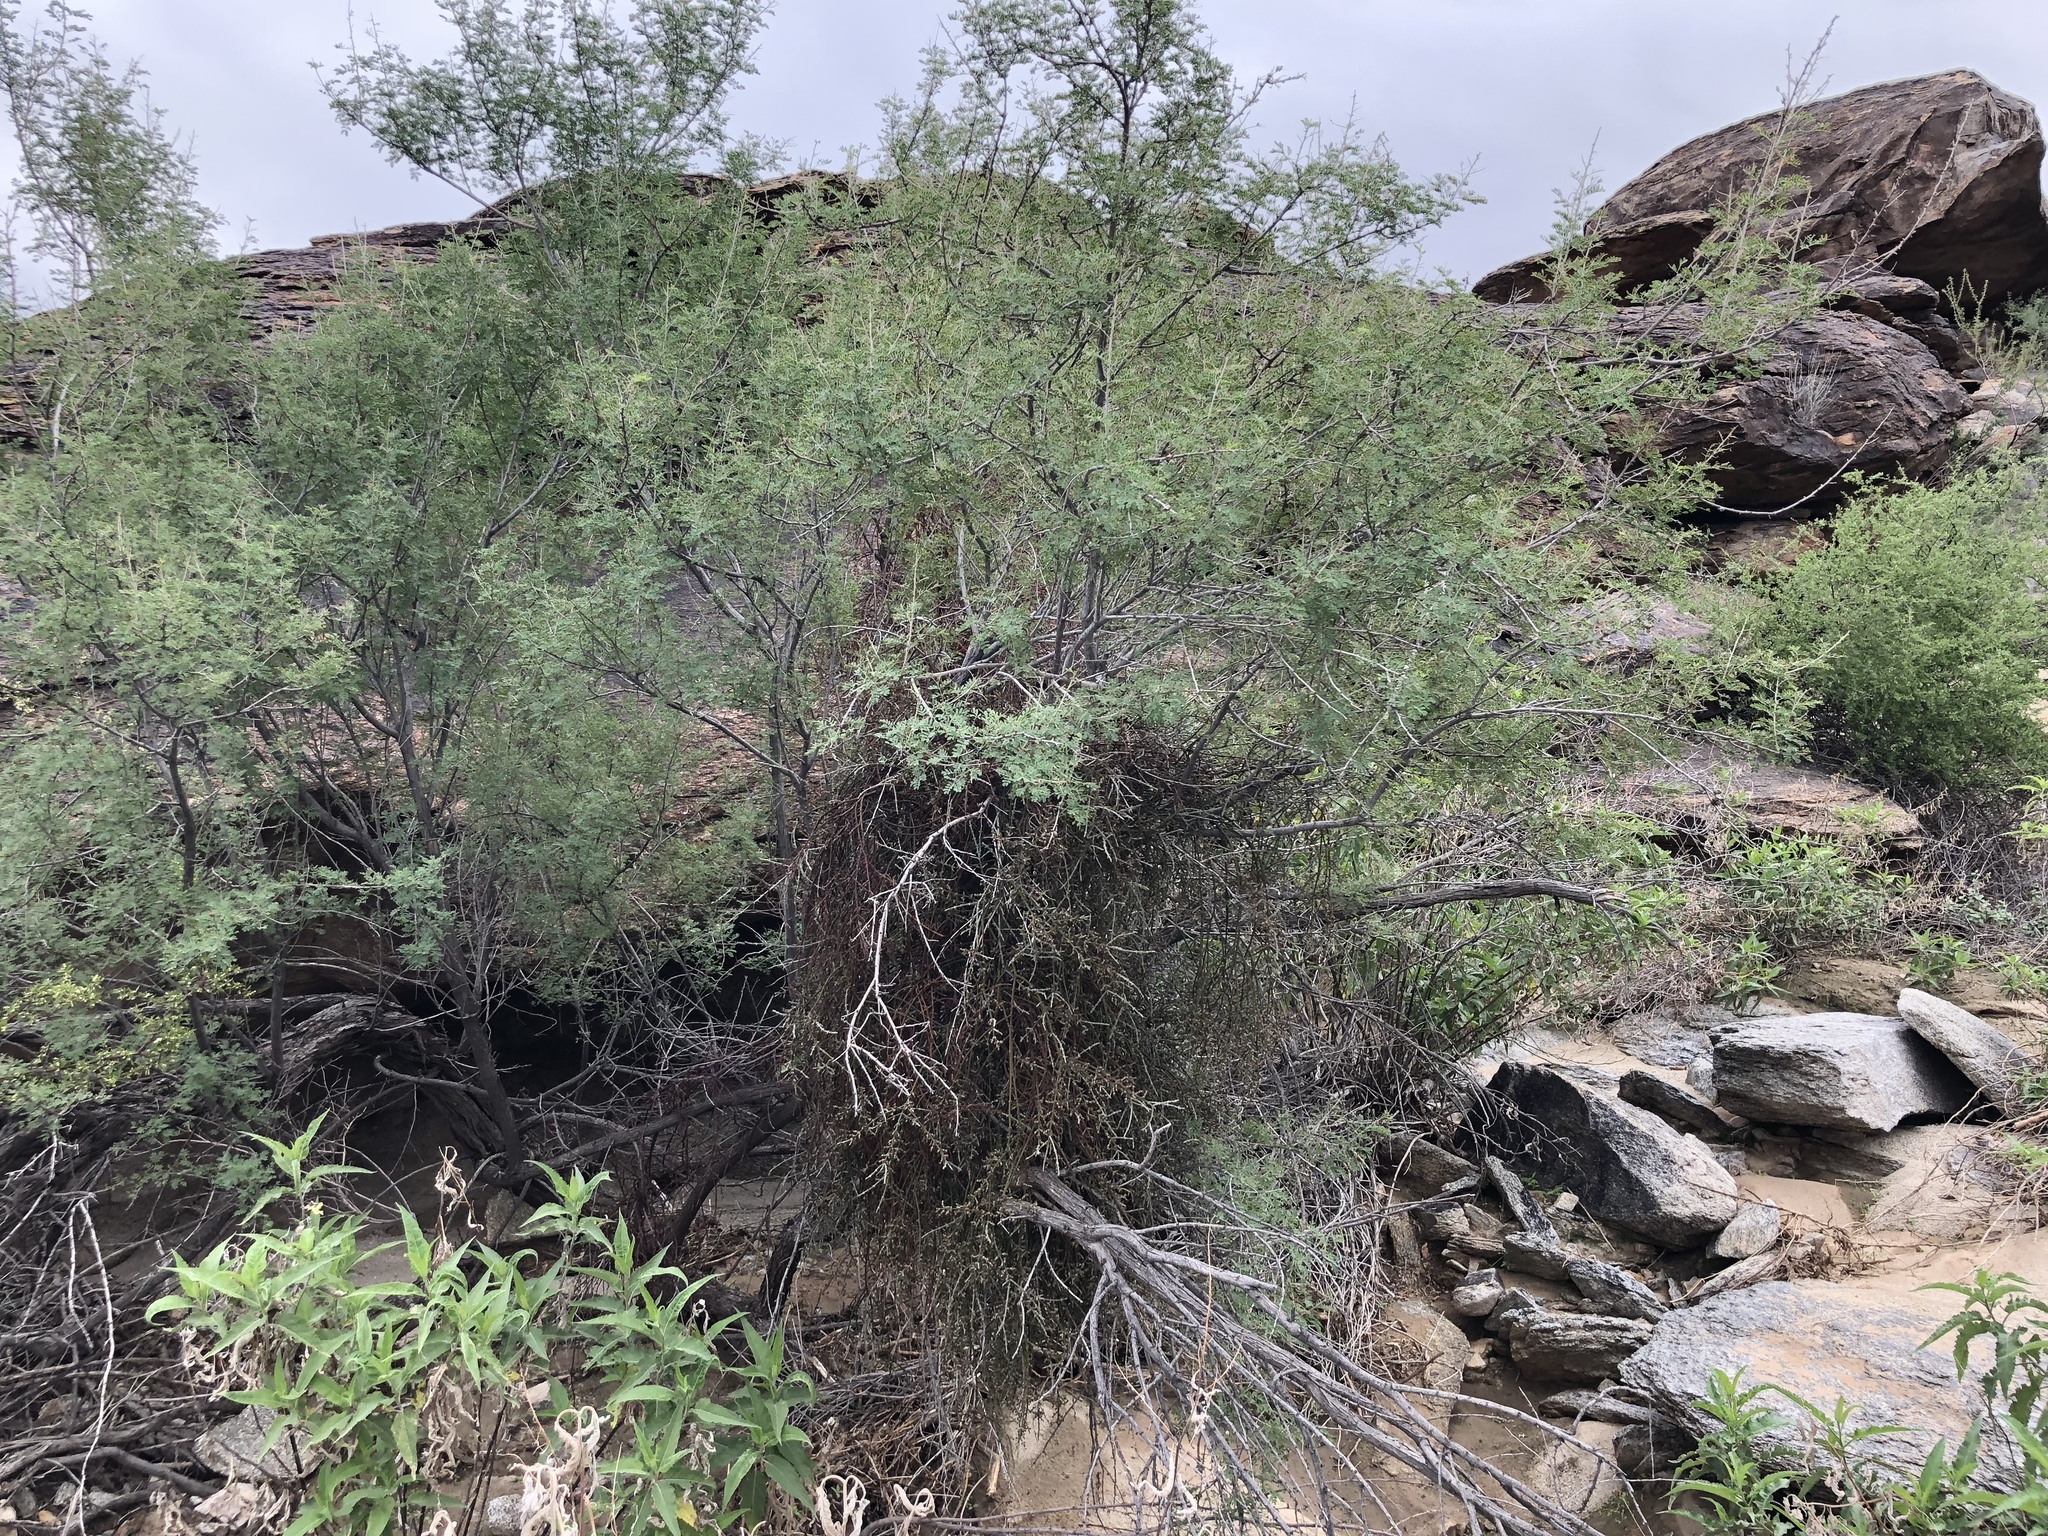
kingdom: Plantae
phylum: Tracheophyta
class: Magnoliopsida
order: Santalales
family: Viscaceae
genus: Phoradendron
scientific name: Phoradendron californicum
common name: Acacia mistletoe
